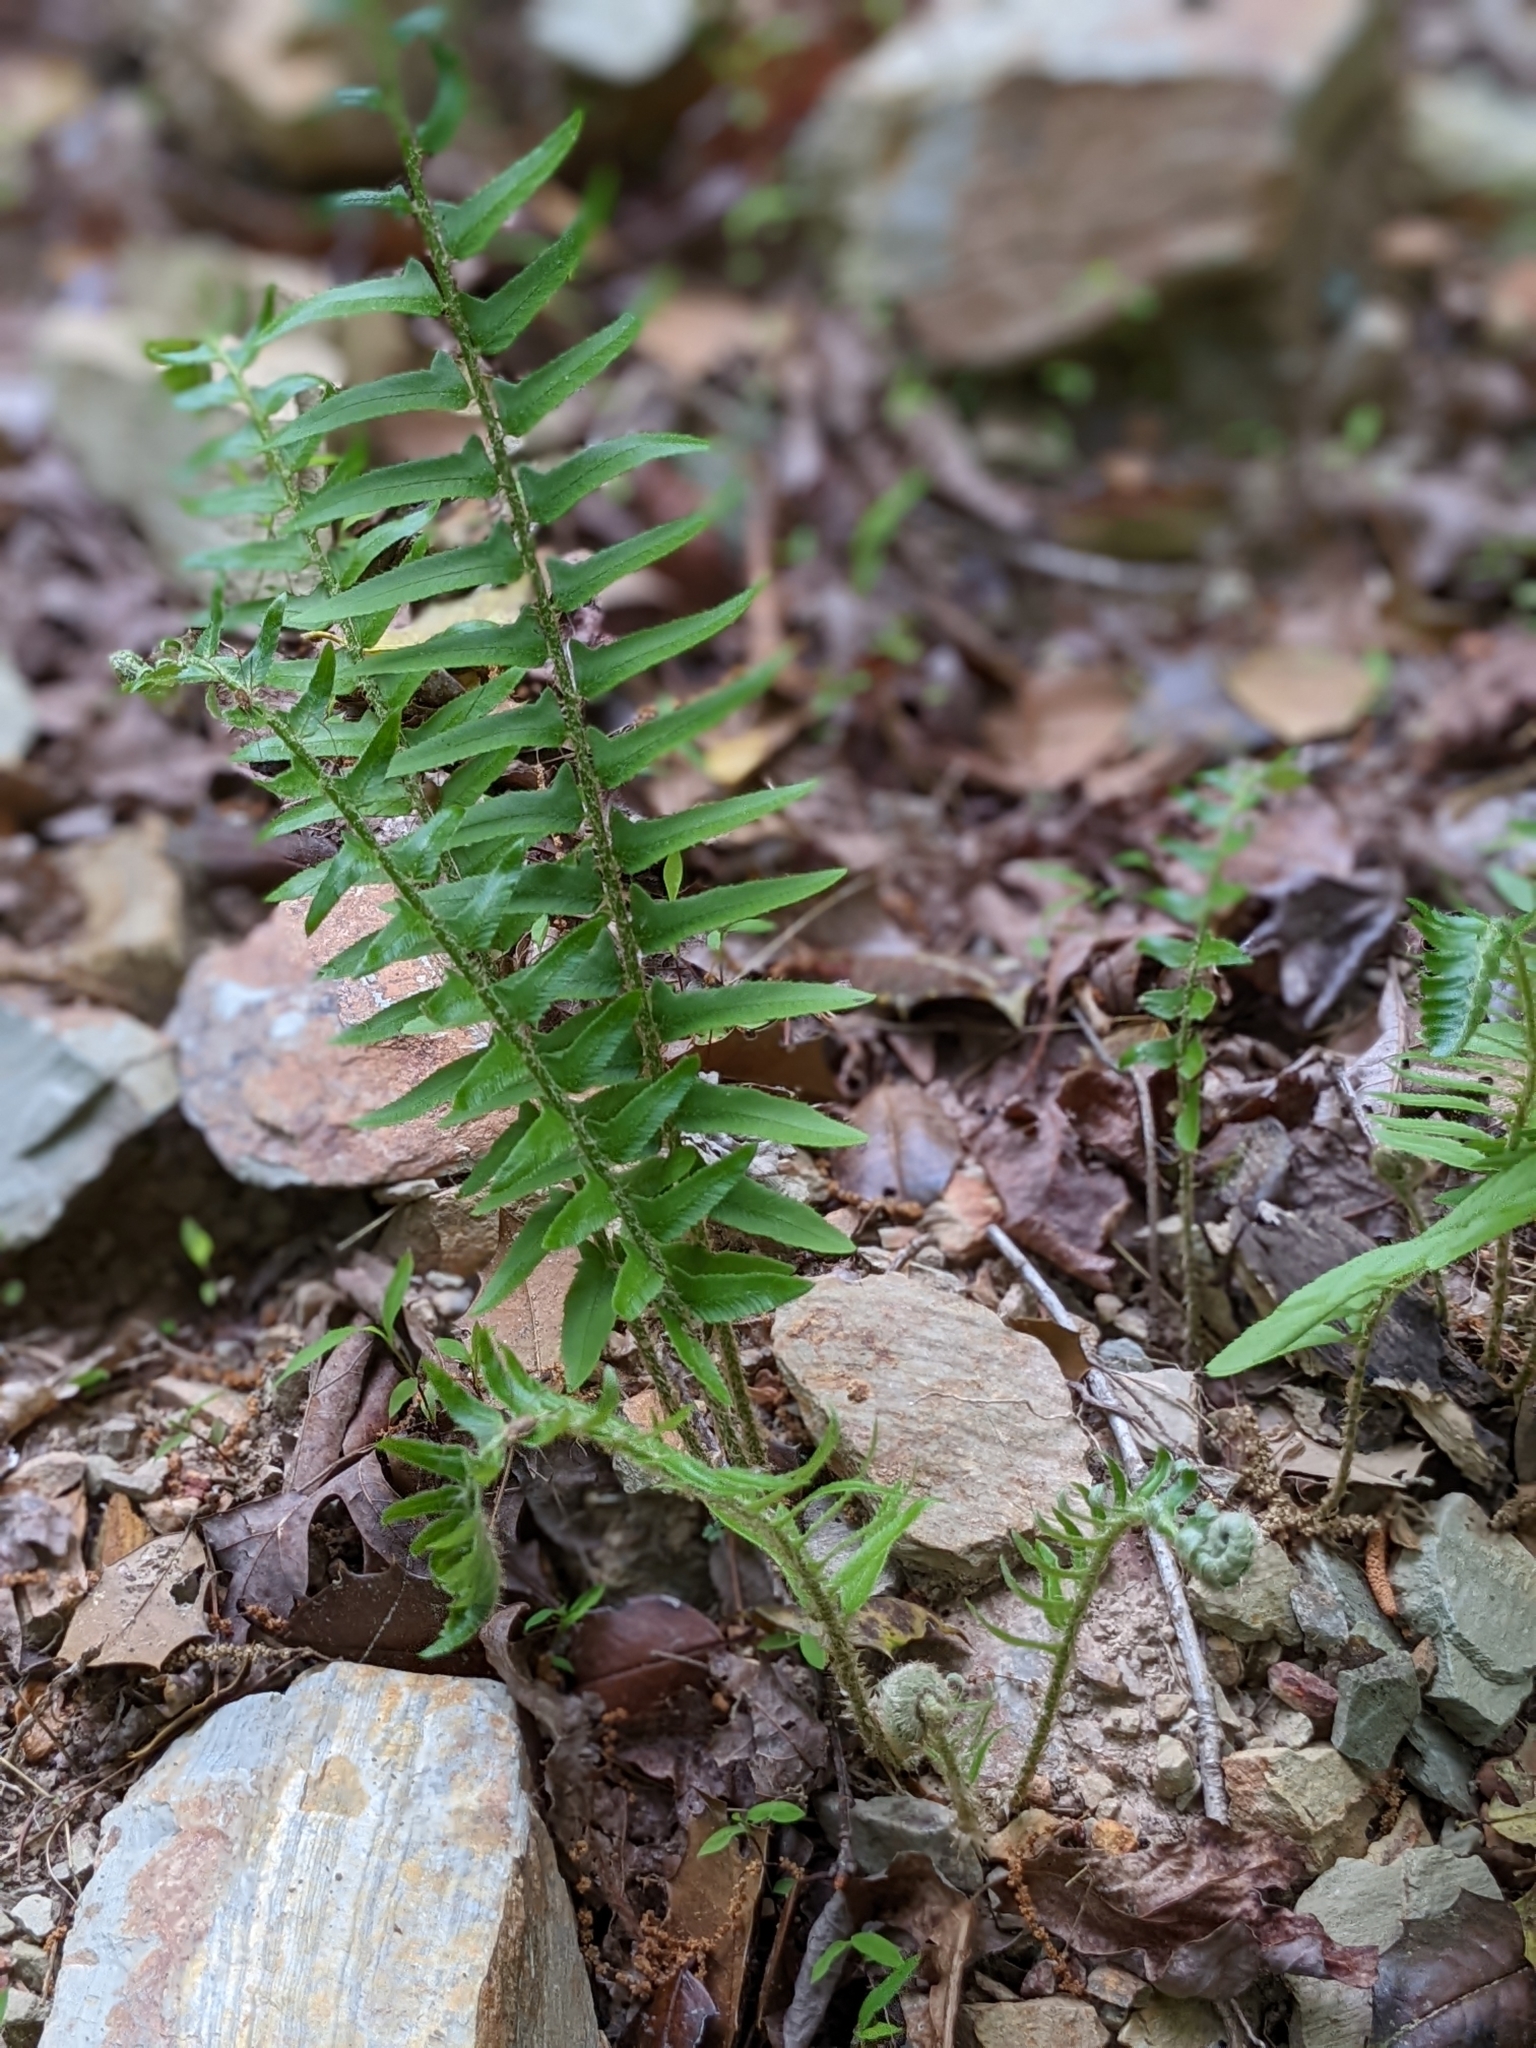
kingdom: Plantae
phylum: Tracheophyta
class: Polypodiopsida
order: Polypodiales
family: Dryopteridaceae
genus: Polystichum
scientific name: Polystichum acrostichoides
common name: Christmas fern
